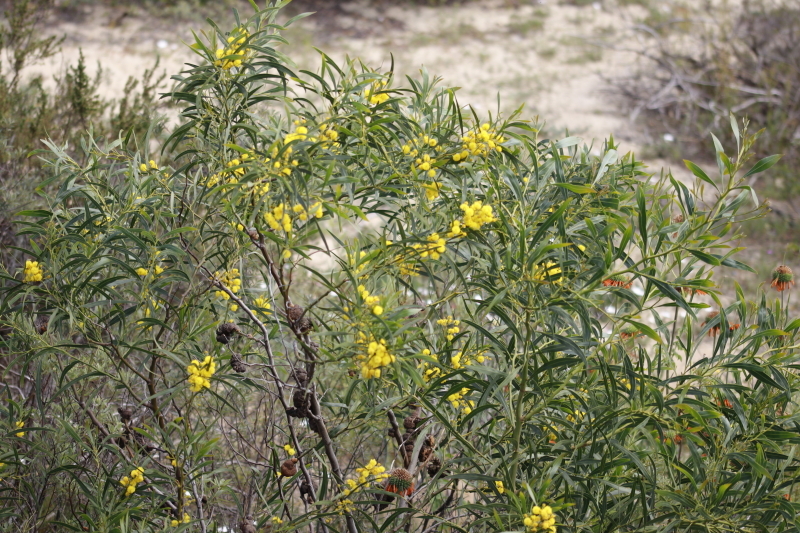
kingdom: Plantae
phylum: Tracheophyta
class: Magnoliopsida
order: Fabales
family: Fabaceae
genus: Acacia
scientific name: Acacia saligna
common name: Orange wattle
